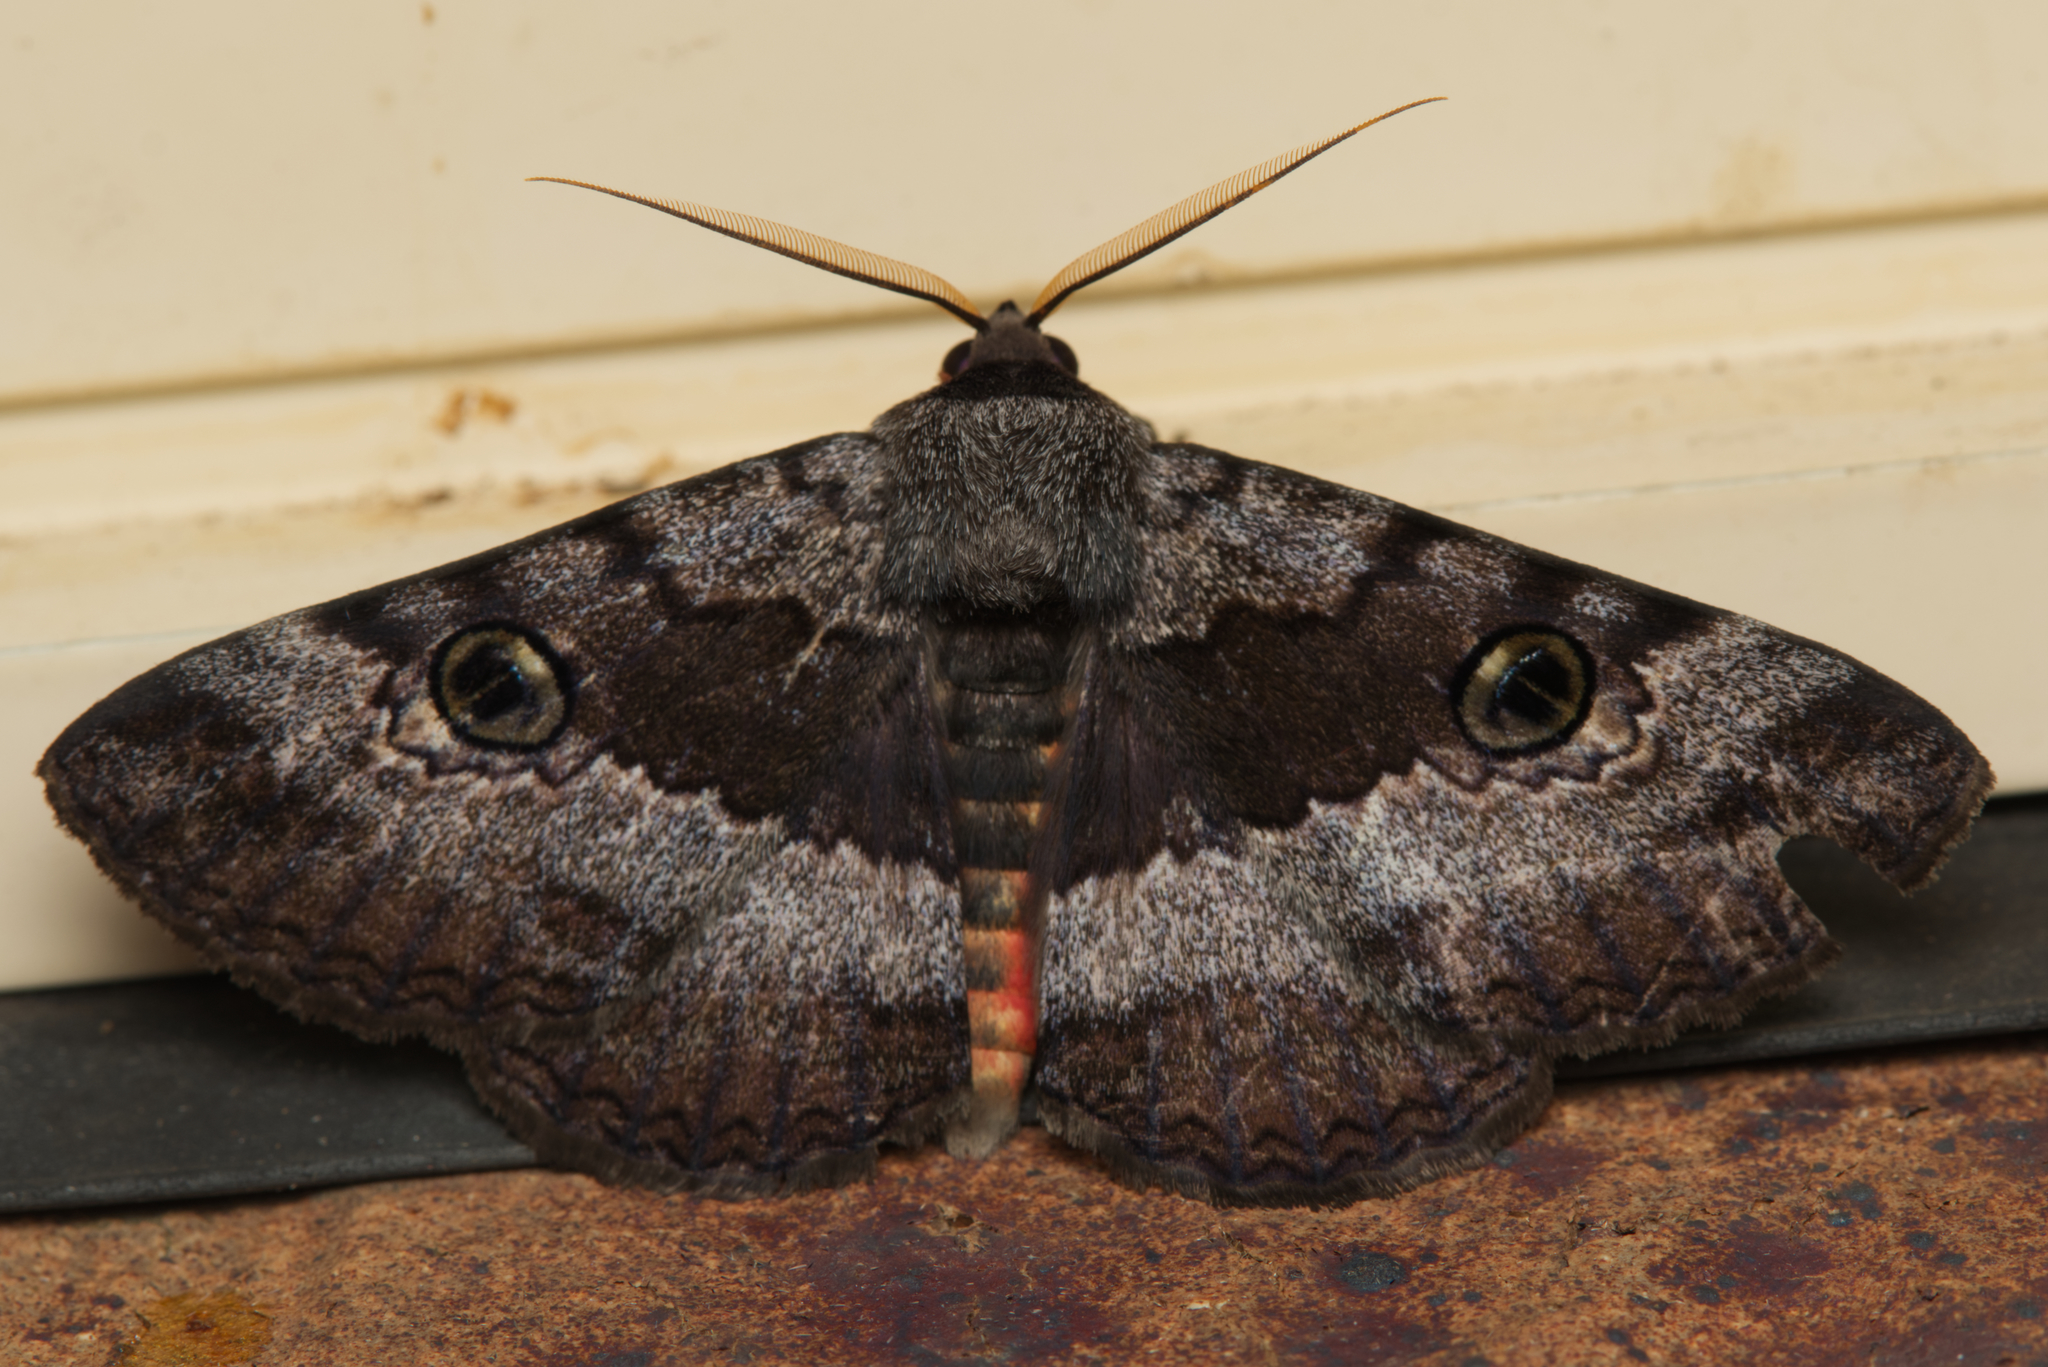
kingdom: Animalia
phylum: Arthropoda
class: Insecta
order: Lepidoptera
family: Erebidae
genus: Donuca
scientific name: Donuca castalia
